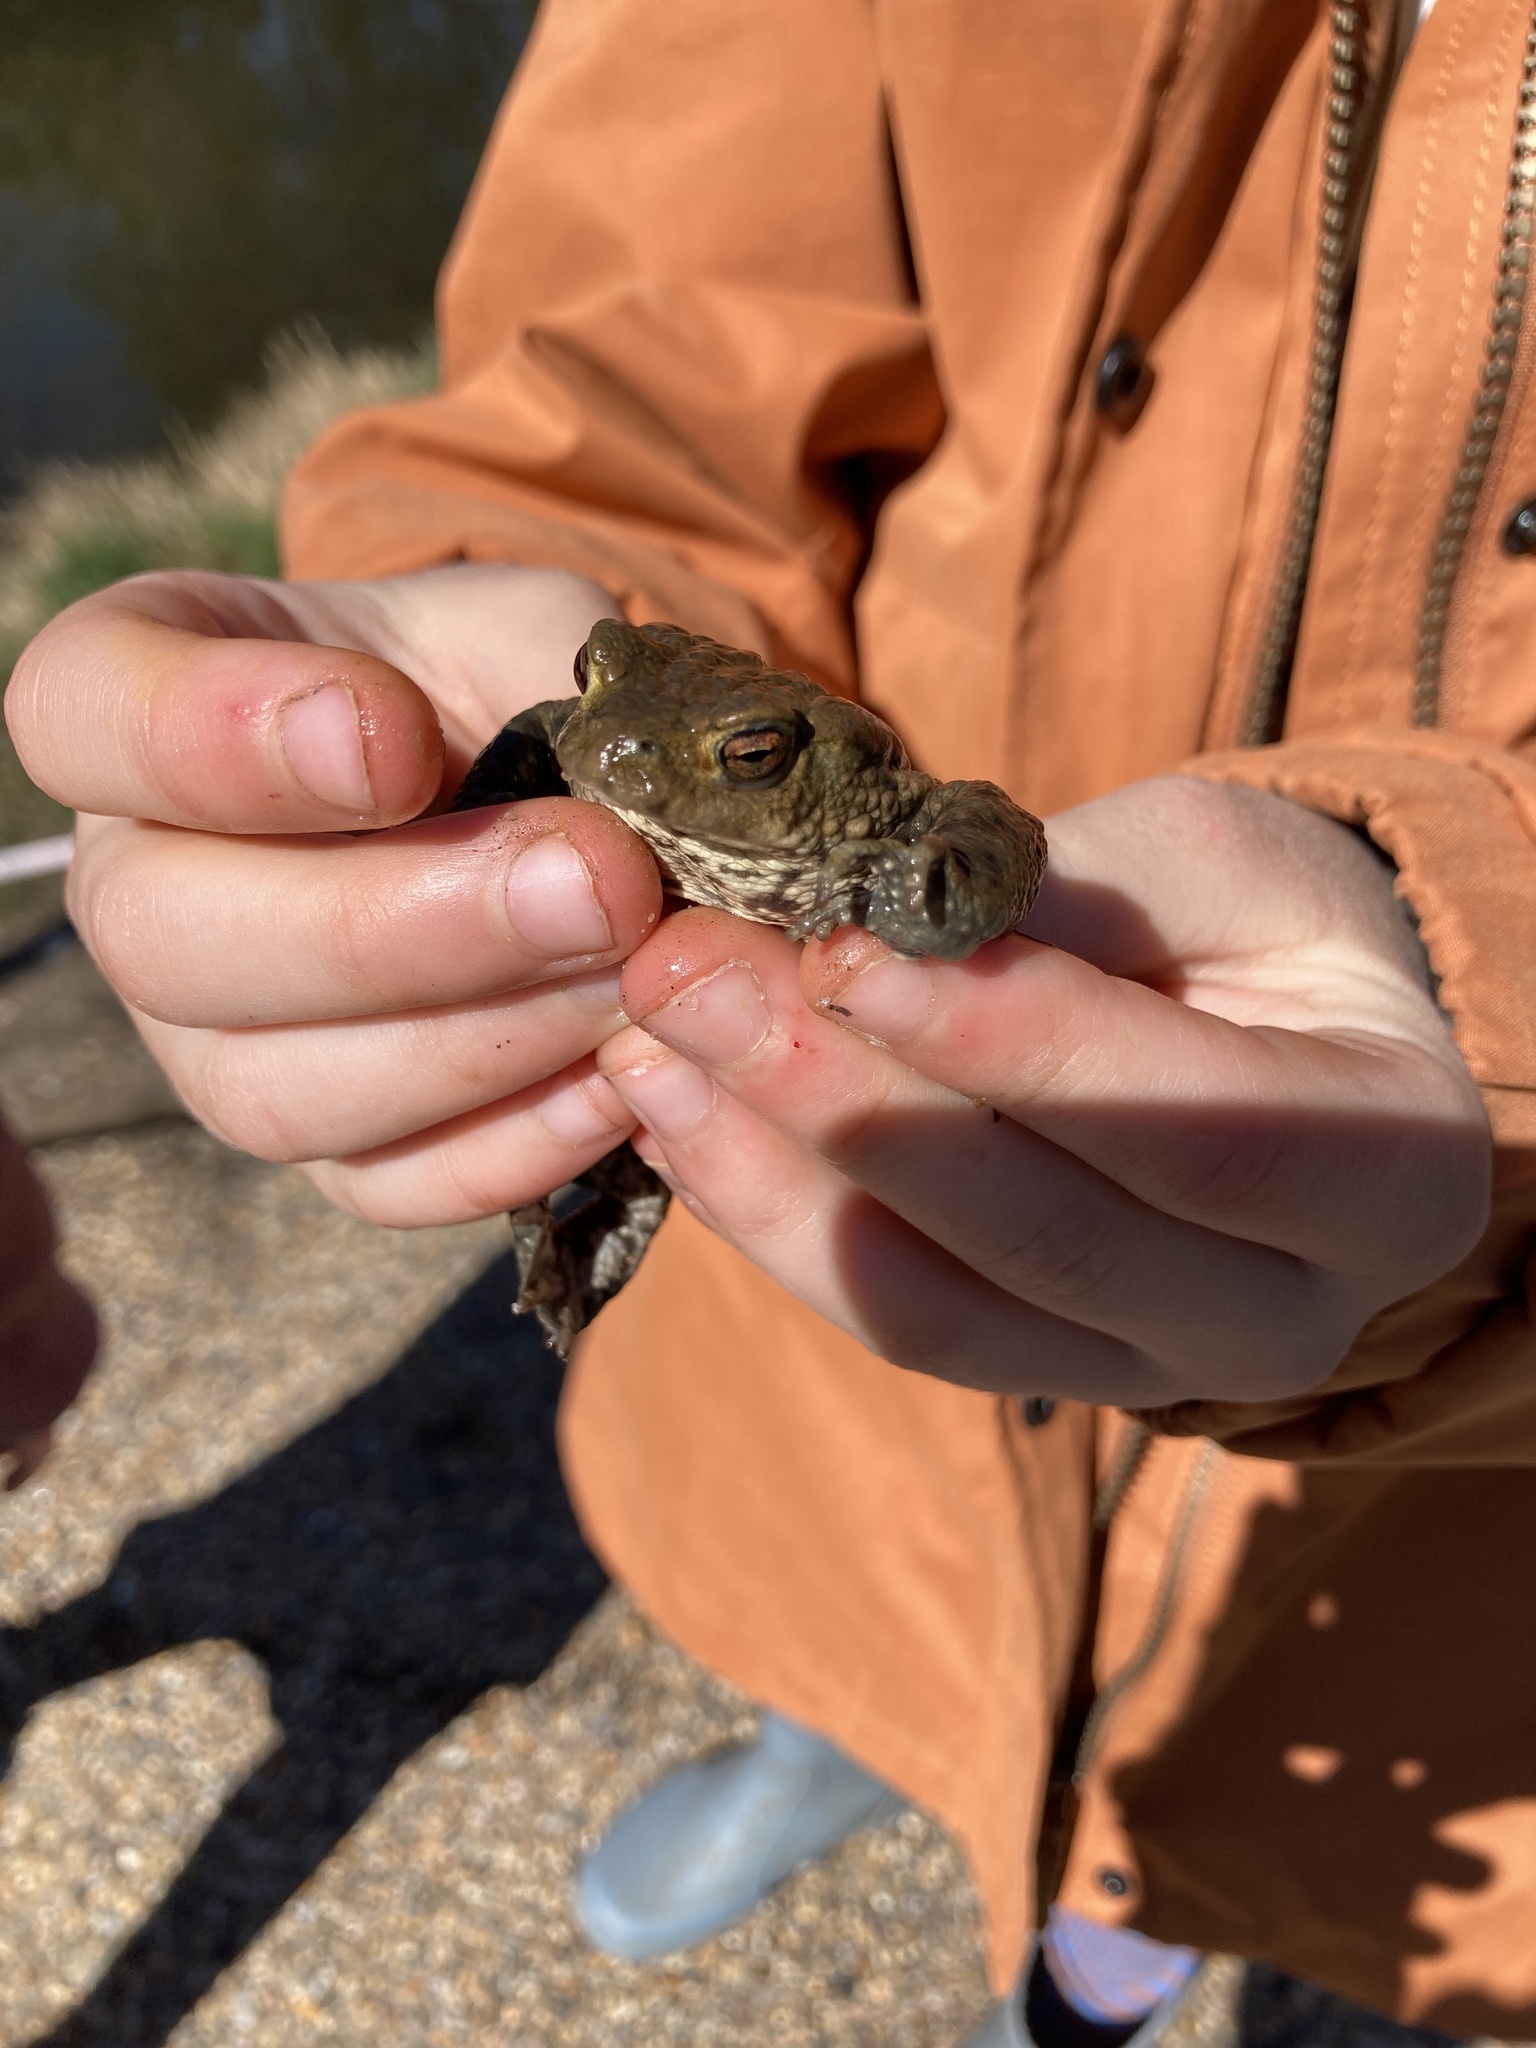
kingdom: Animalia
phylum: Chordata
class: Amphibia
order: Anura
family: Bufonidae
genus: Bufo
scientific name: Bufo bufo
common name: Common toad
